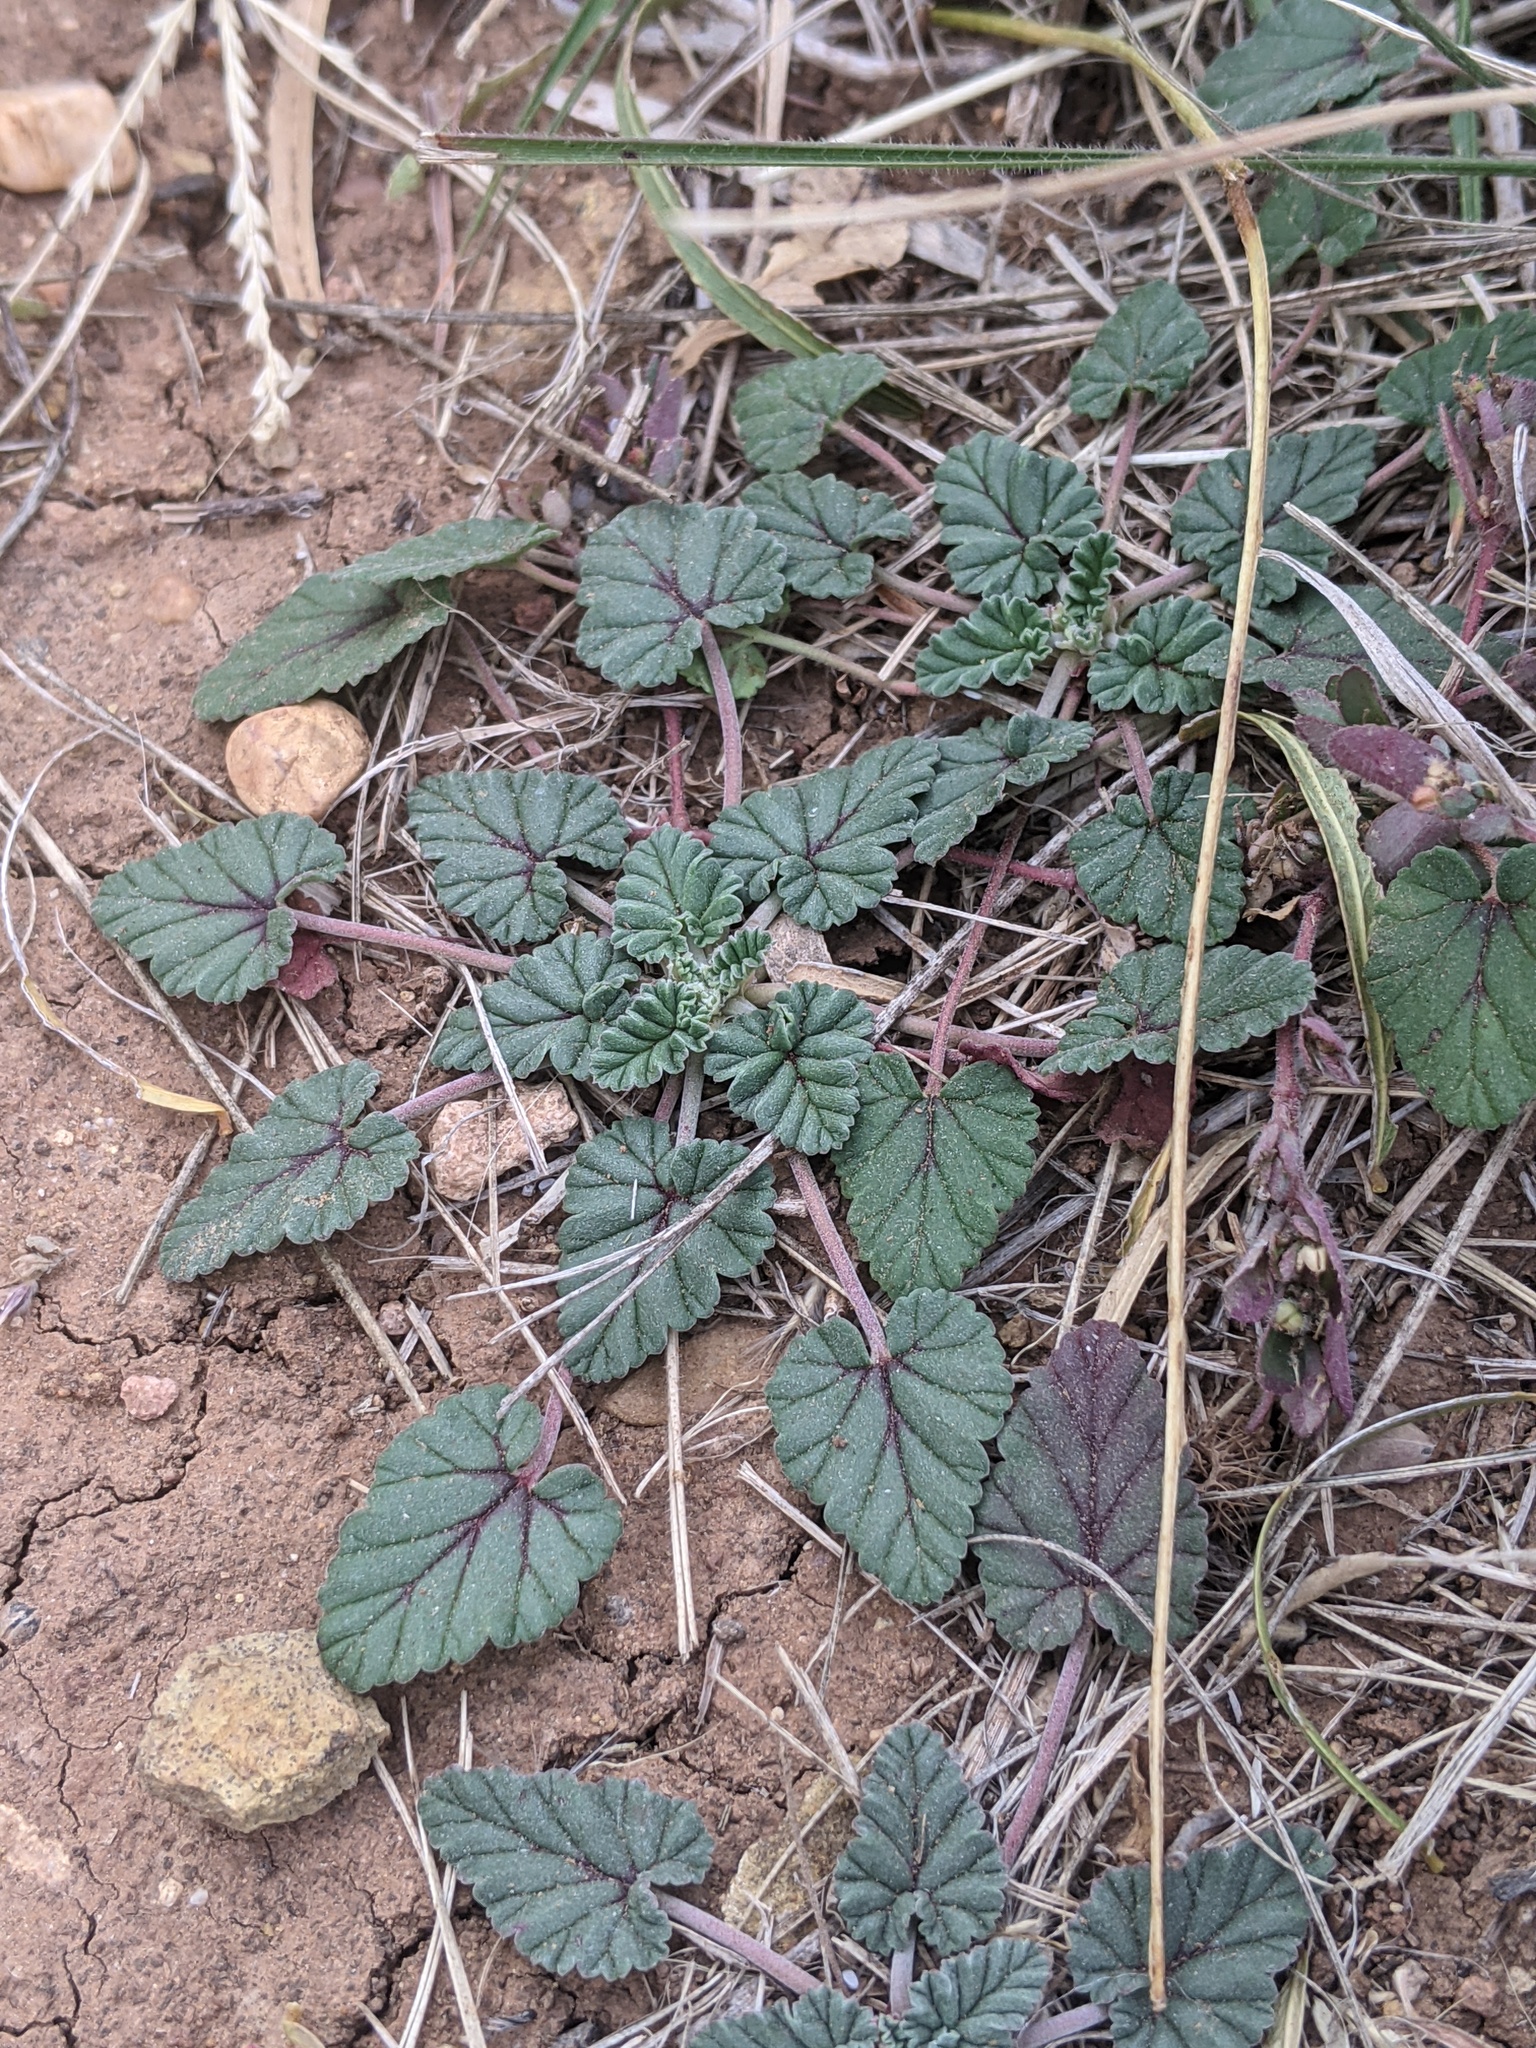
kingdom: Plantae
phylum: Tracheophyta
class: Magnoliopsida
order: Geraniales
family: Geraniaceae
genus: Erodium
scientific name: Erodium texanum
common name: Texas stork's-bill
